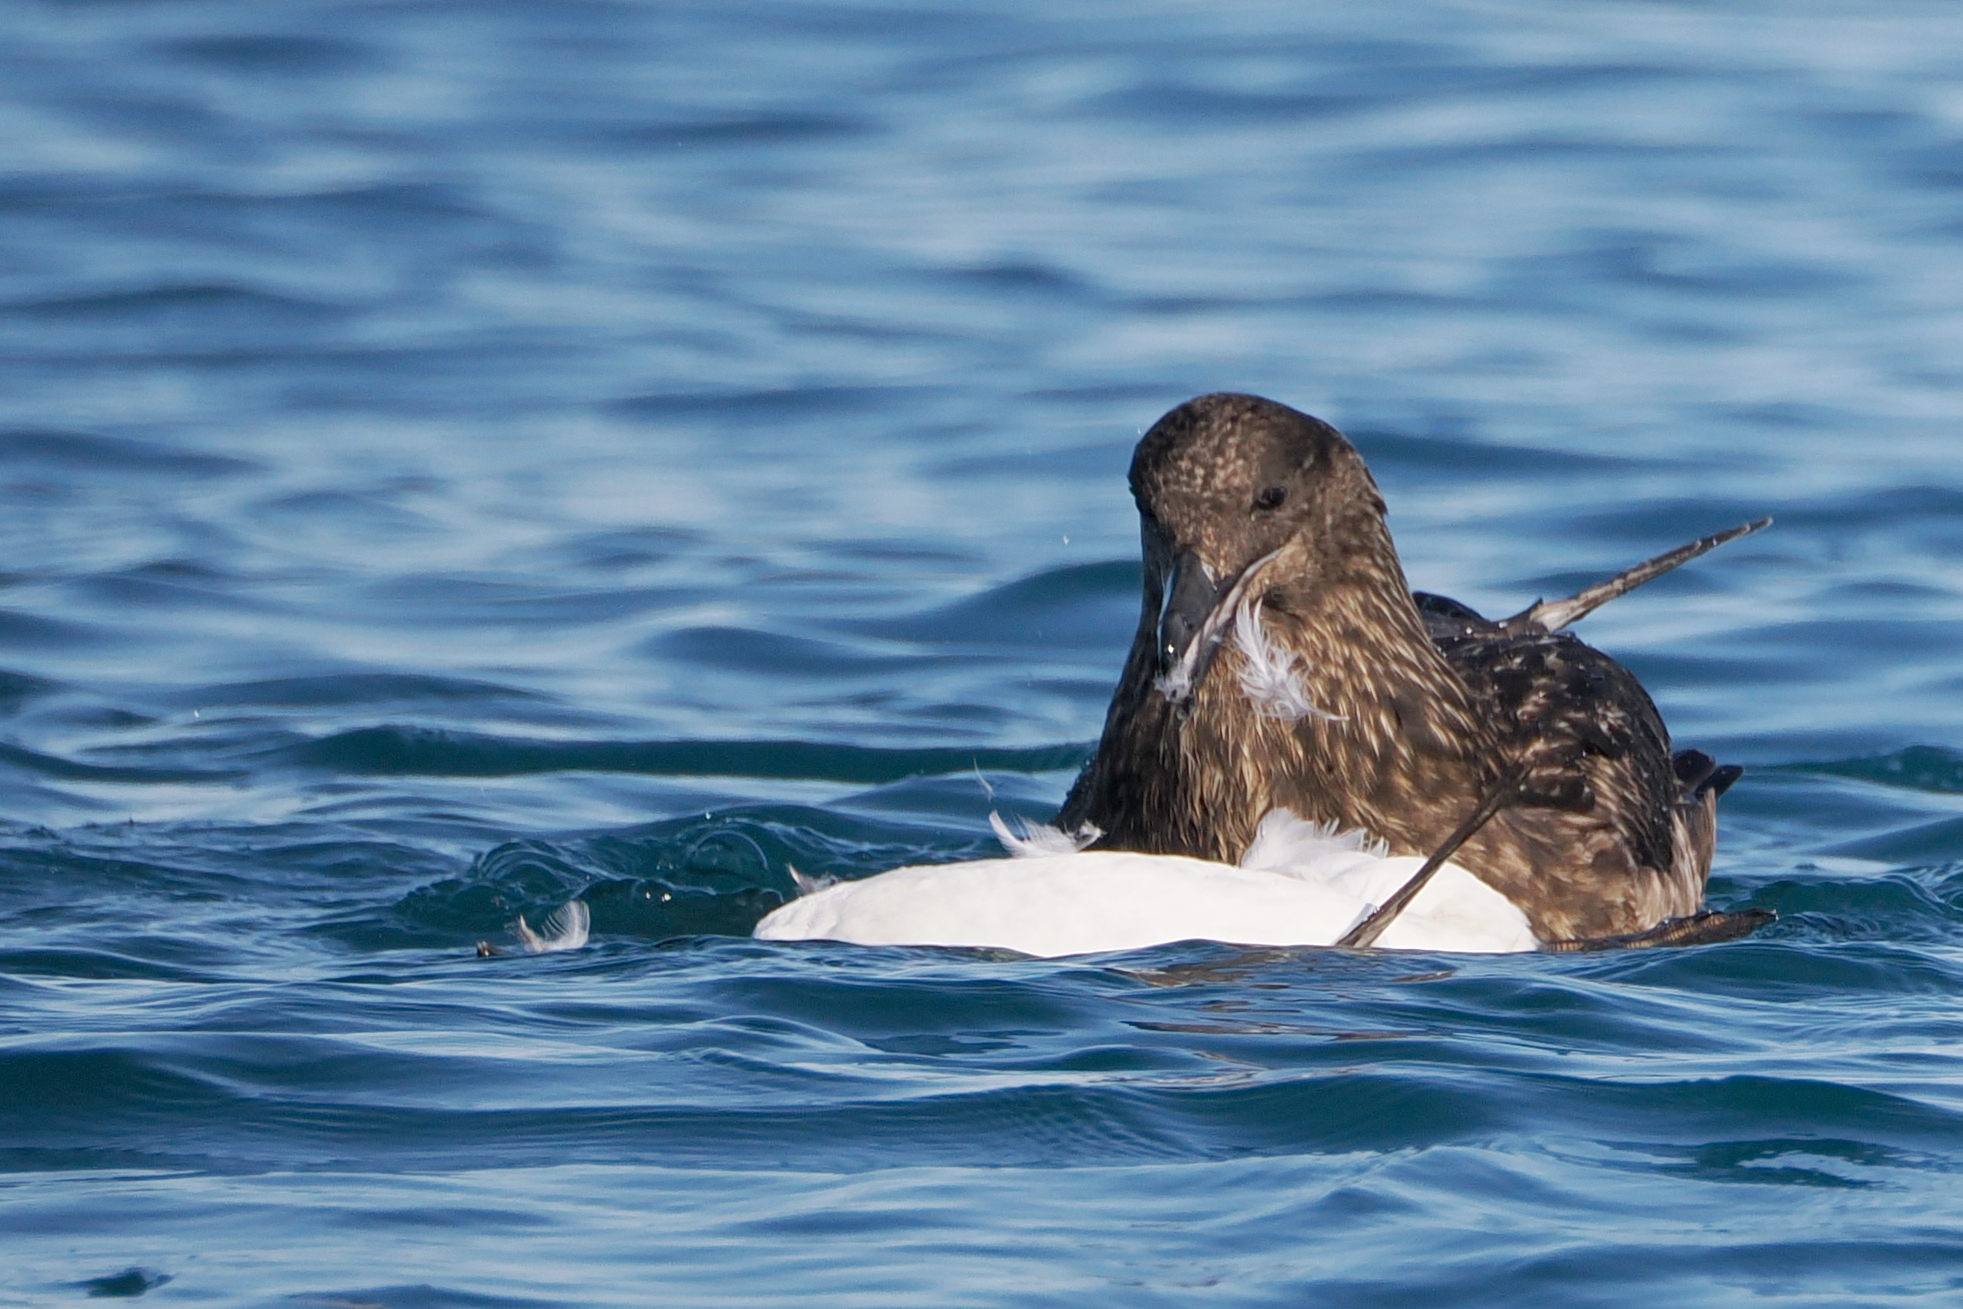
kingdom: Animalia
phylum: Chordata
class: Aves
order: Charadriiformes
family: Stercorariidae
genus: Stercorarius
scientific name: Stercorarius skua
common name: Great skua
